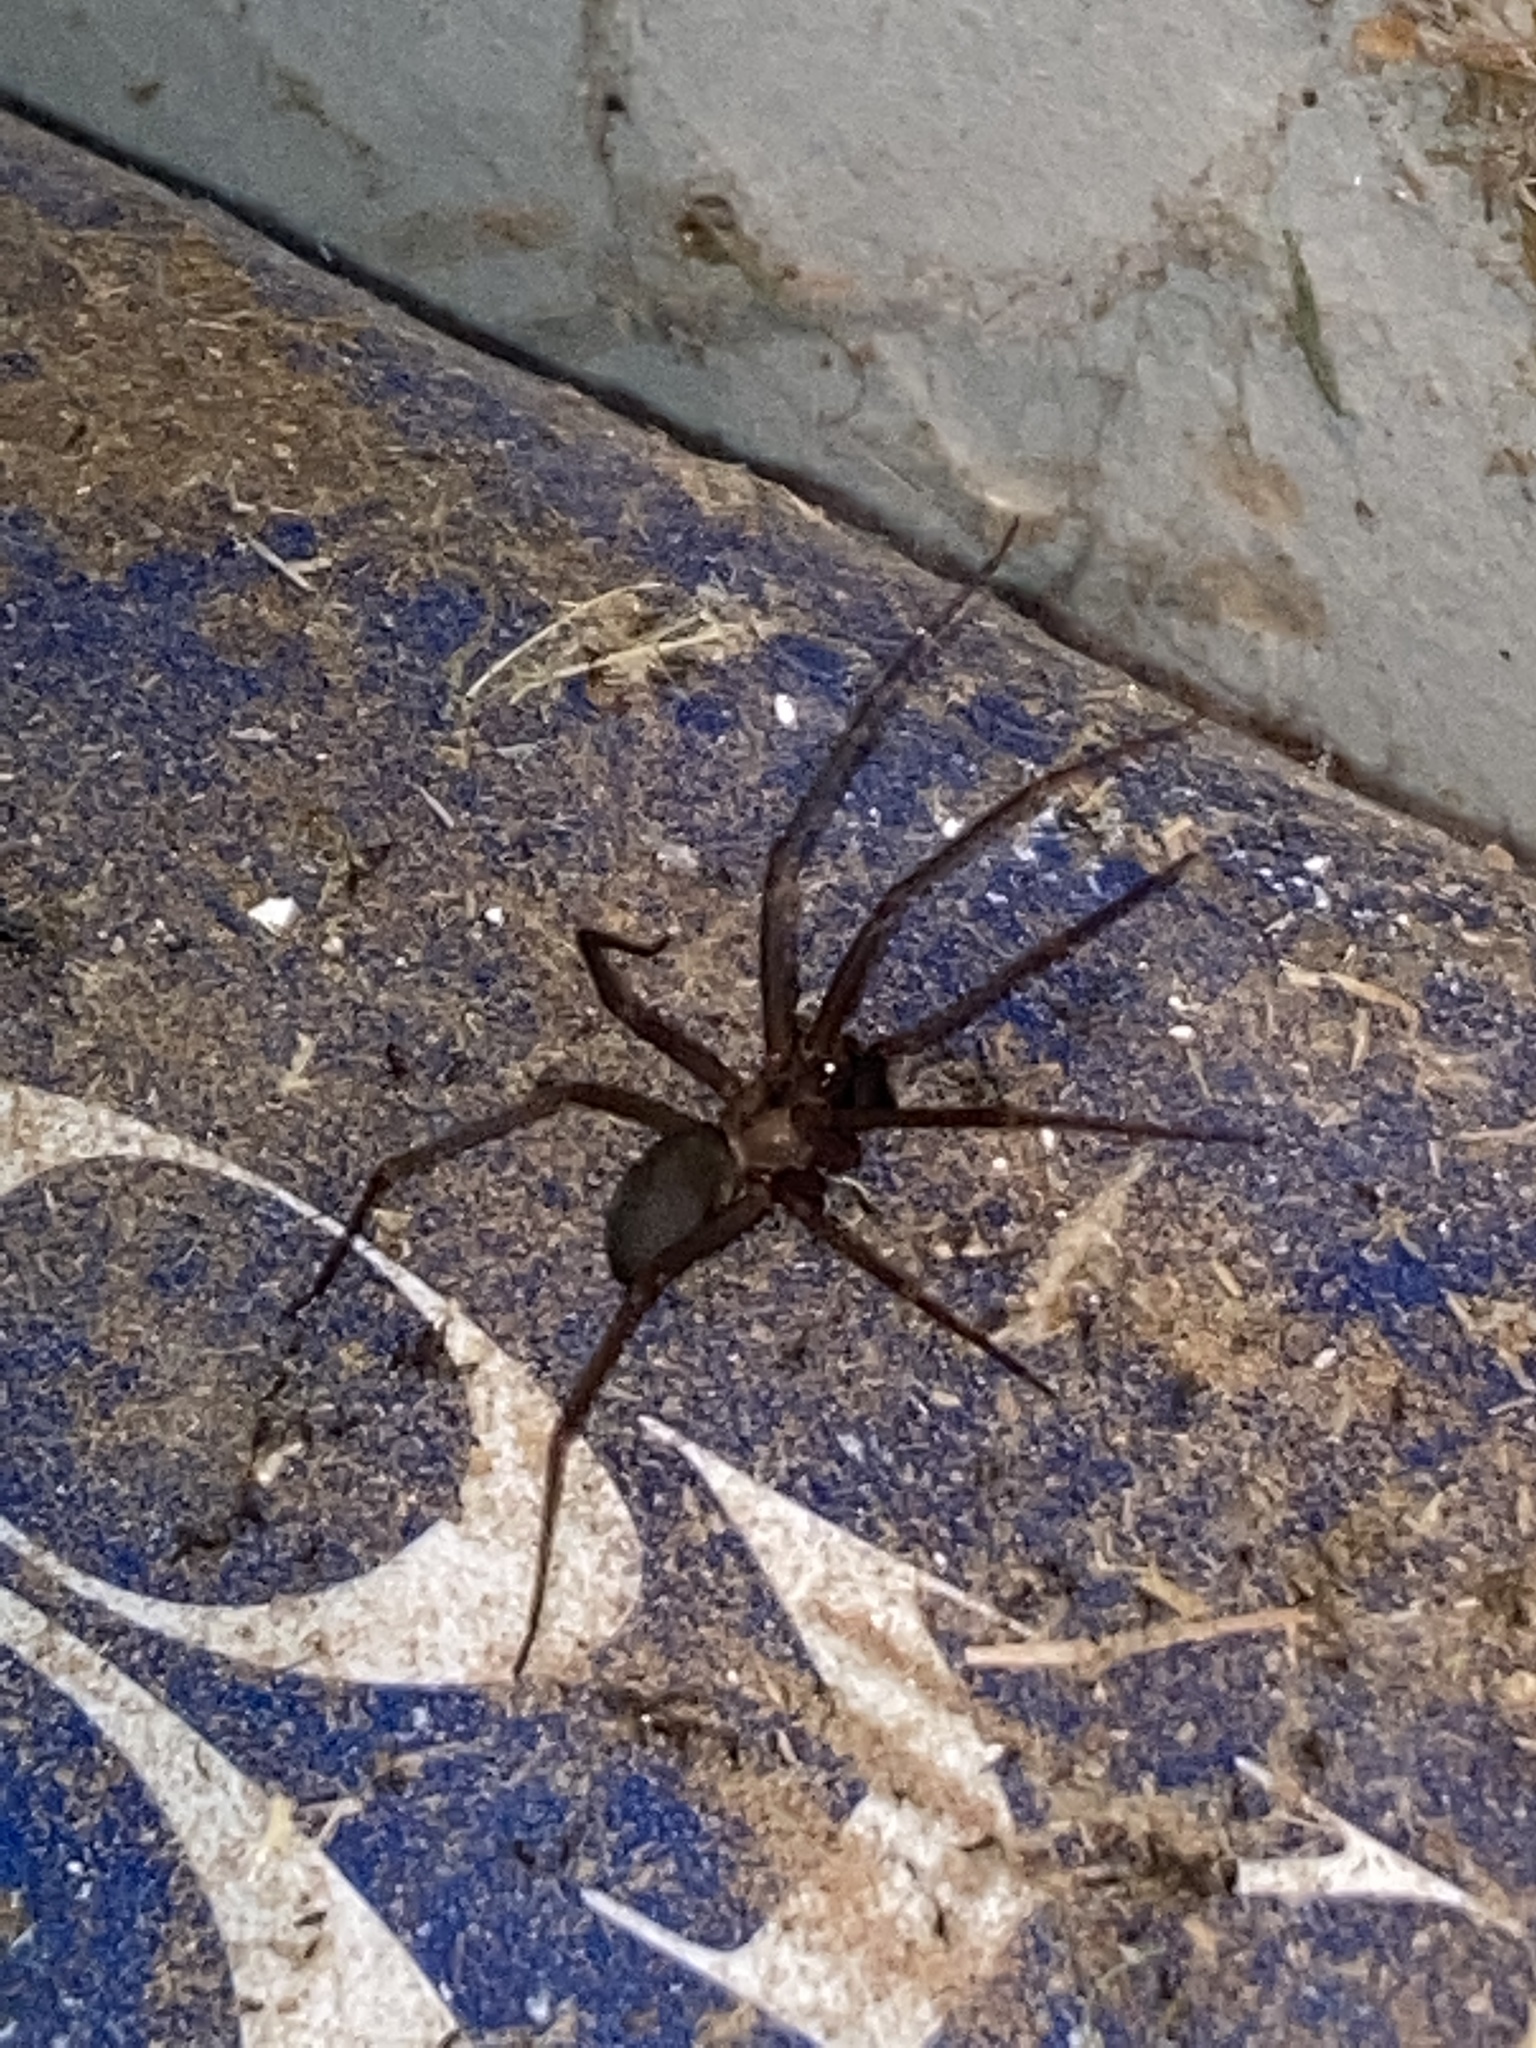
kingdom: Animalia
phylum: Arthropoda
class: Arachnida
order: Araneae
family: Sicariidae
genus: Loxosceles
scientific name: Loxosceles reclusa
